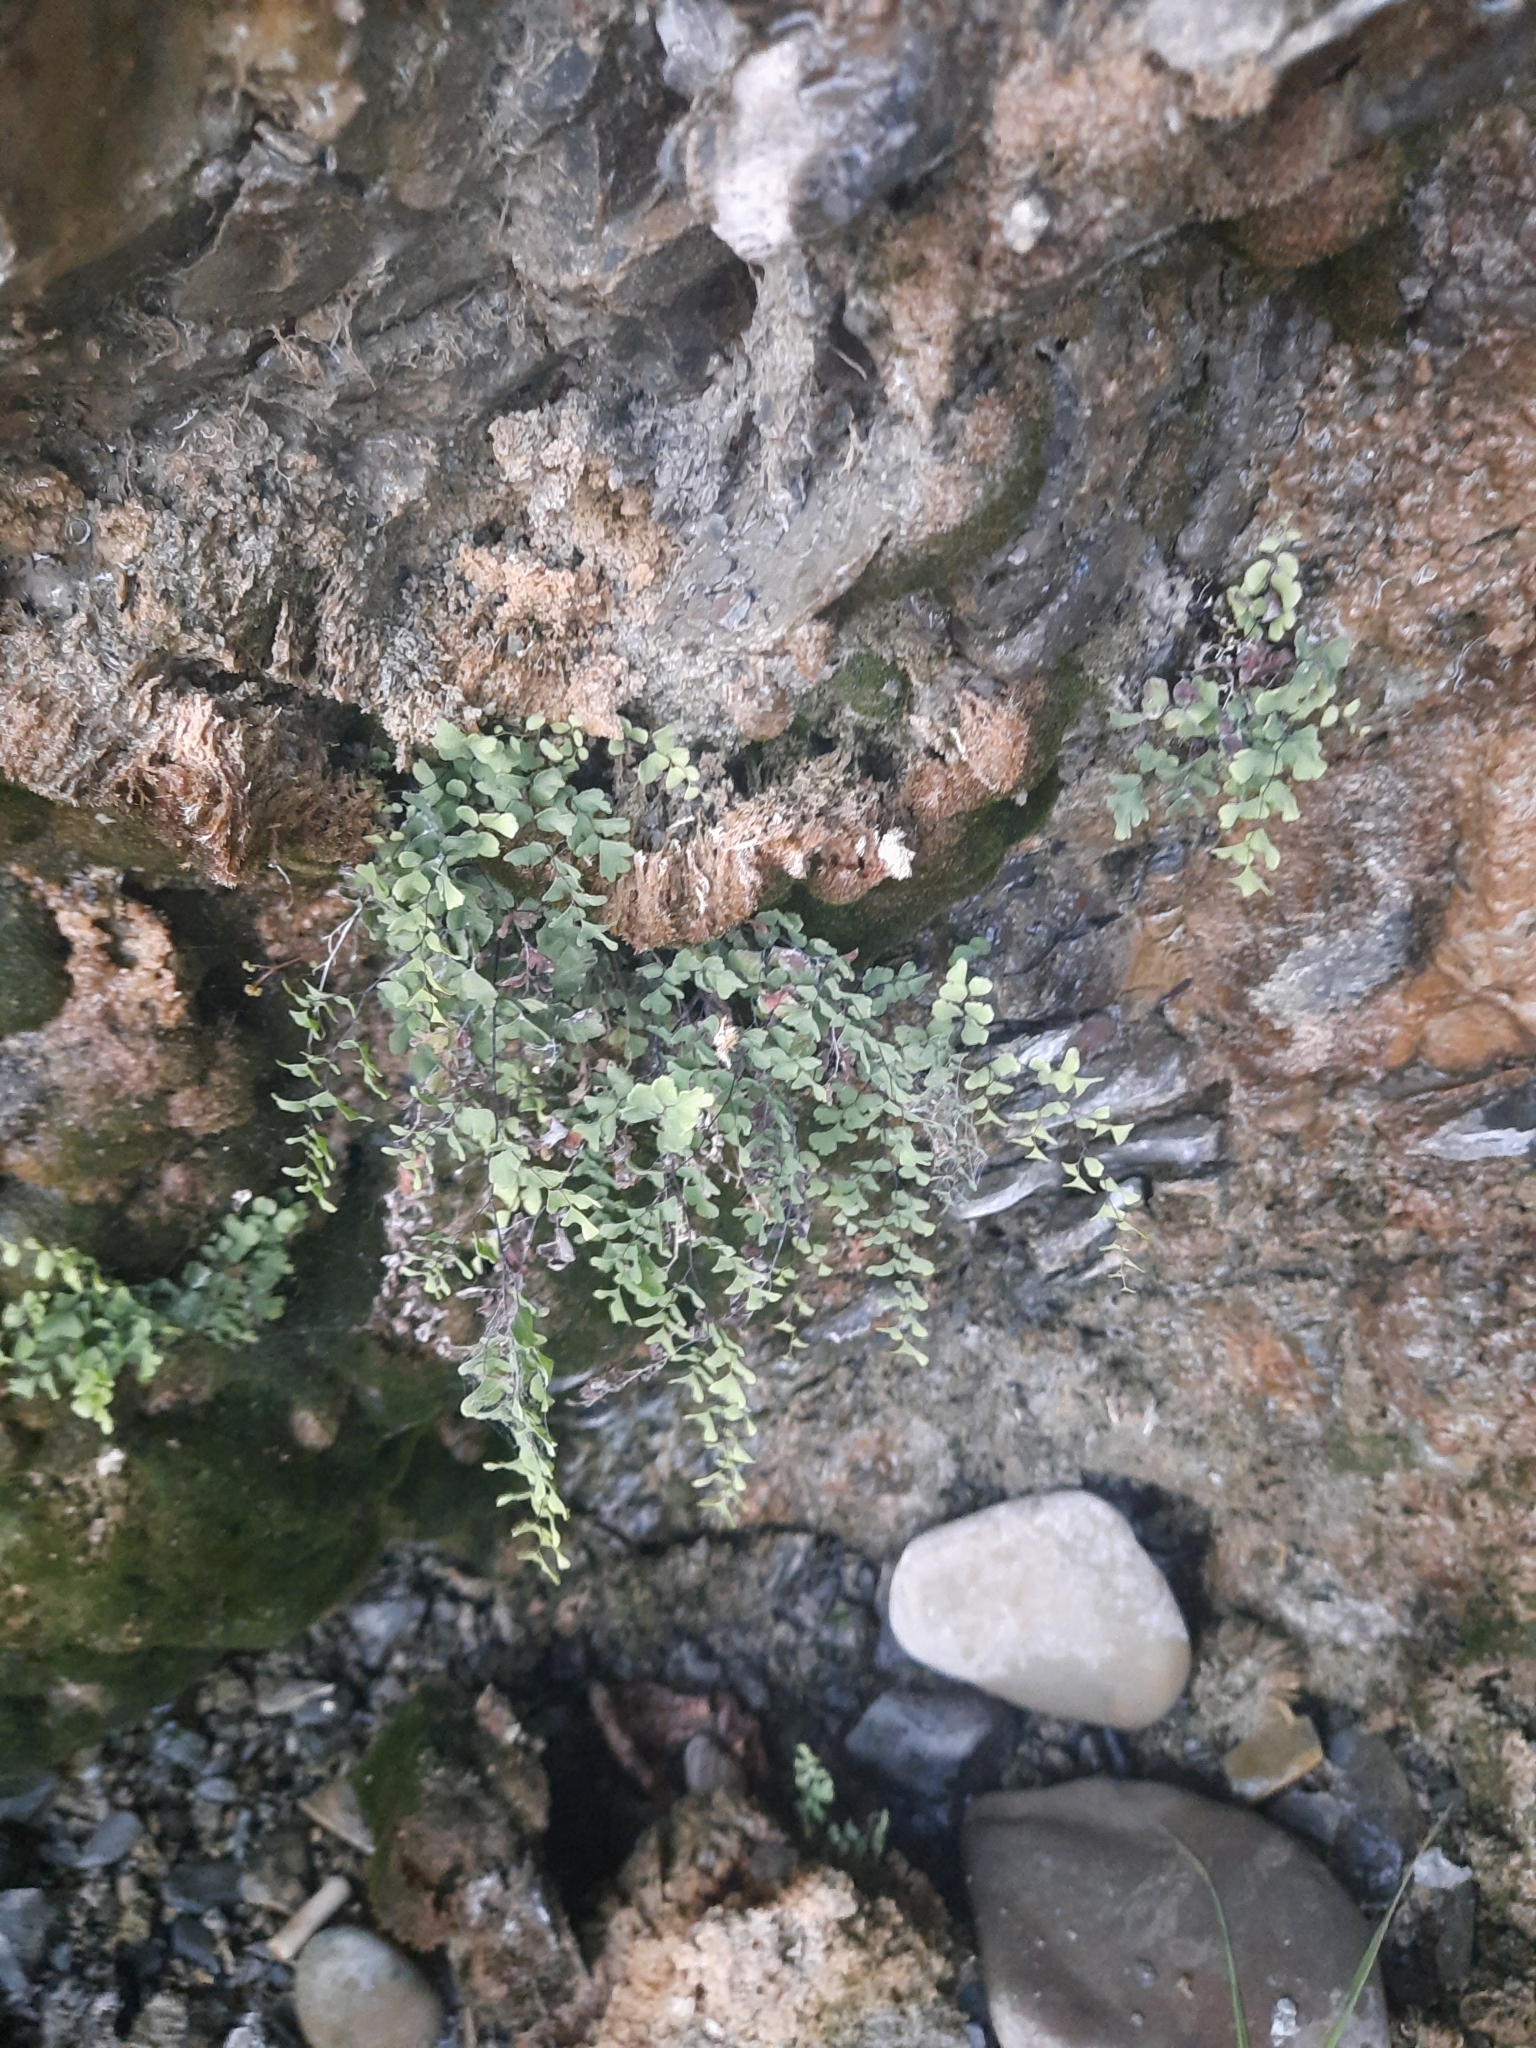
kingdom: Plantae
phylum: Tracheophyta
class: Polypodiopsida
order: Polypodiales
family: Pteridaceae
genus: Adiantum
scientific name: Adiantum capillus-veneris
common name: Maidenhair fern
